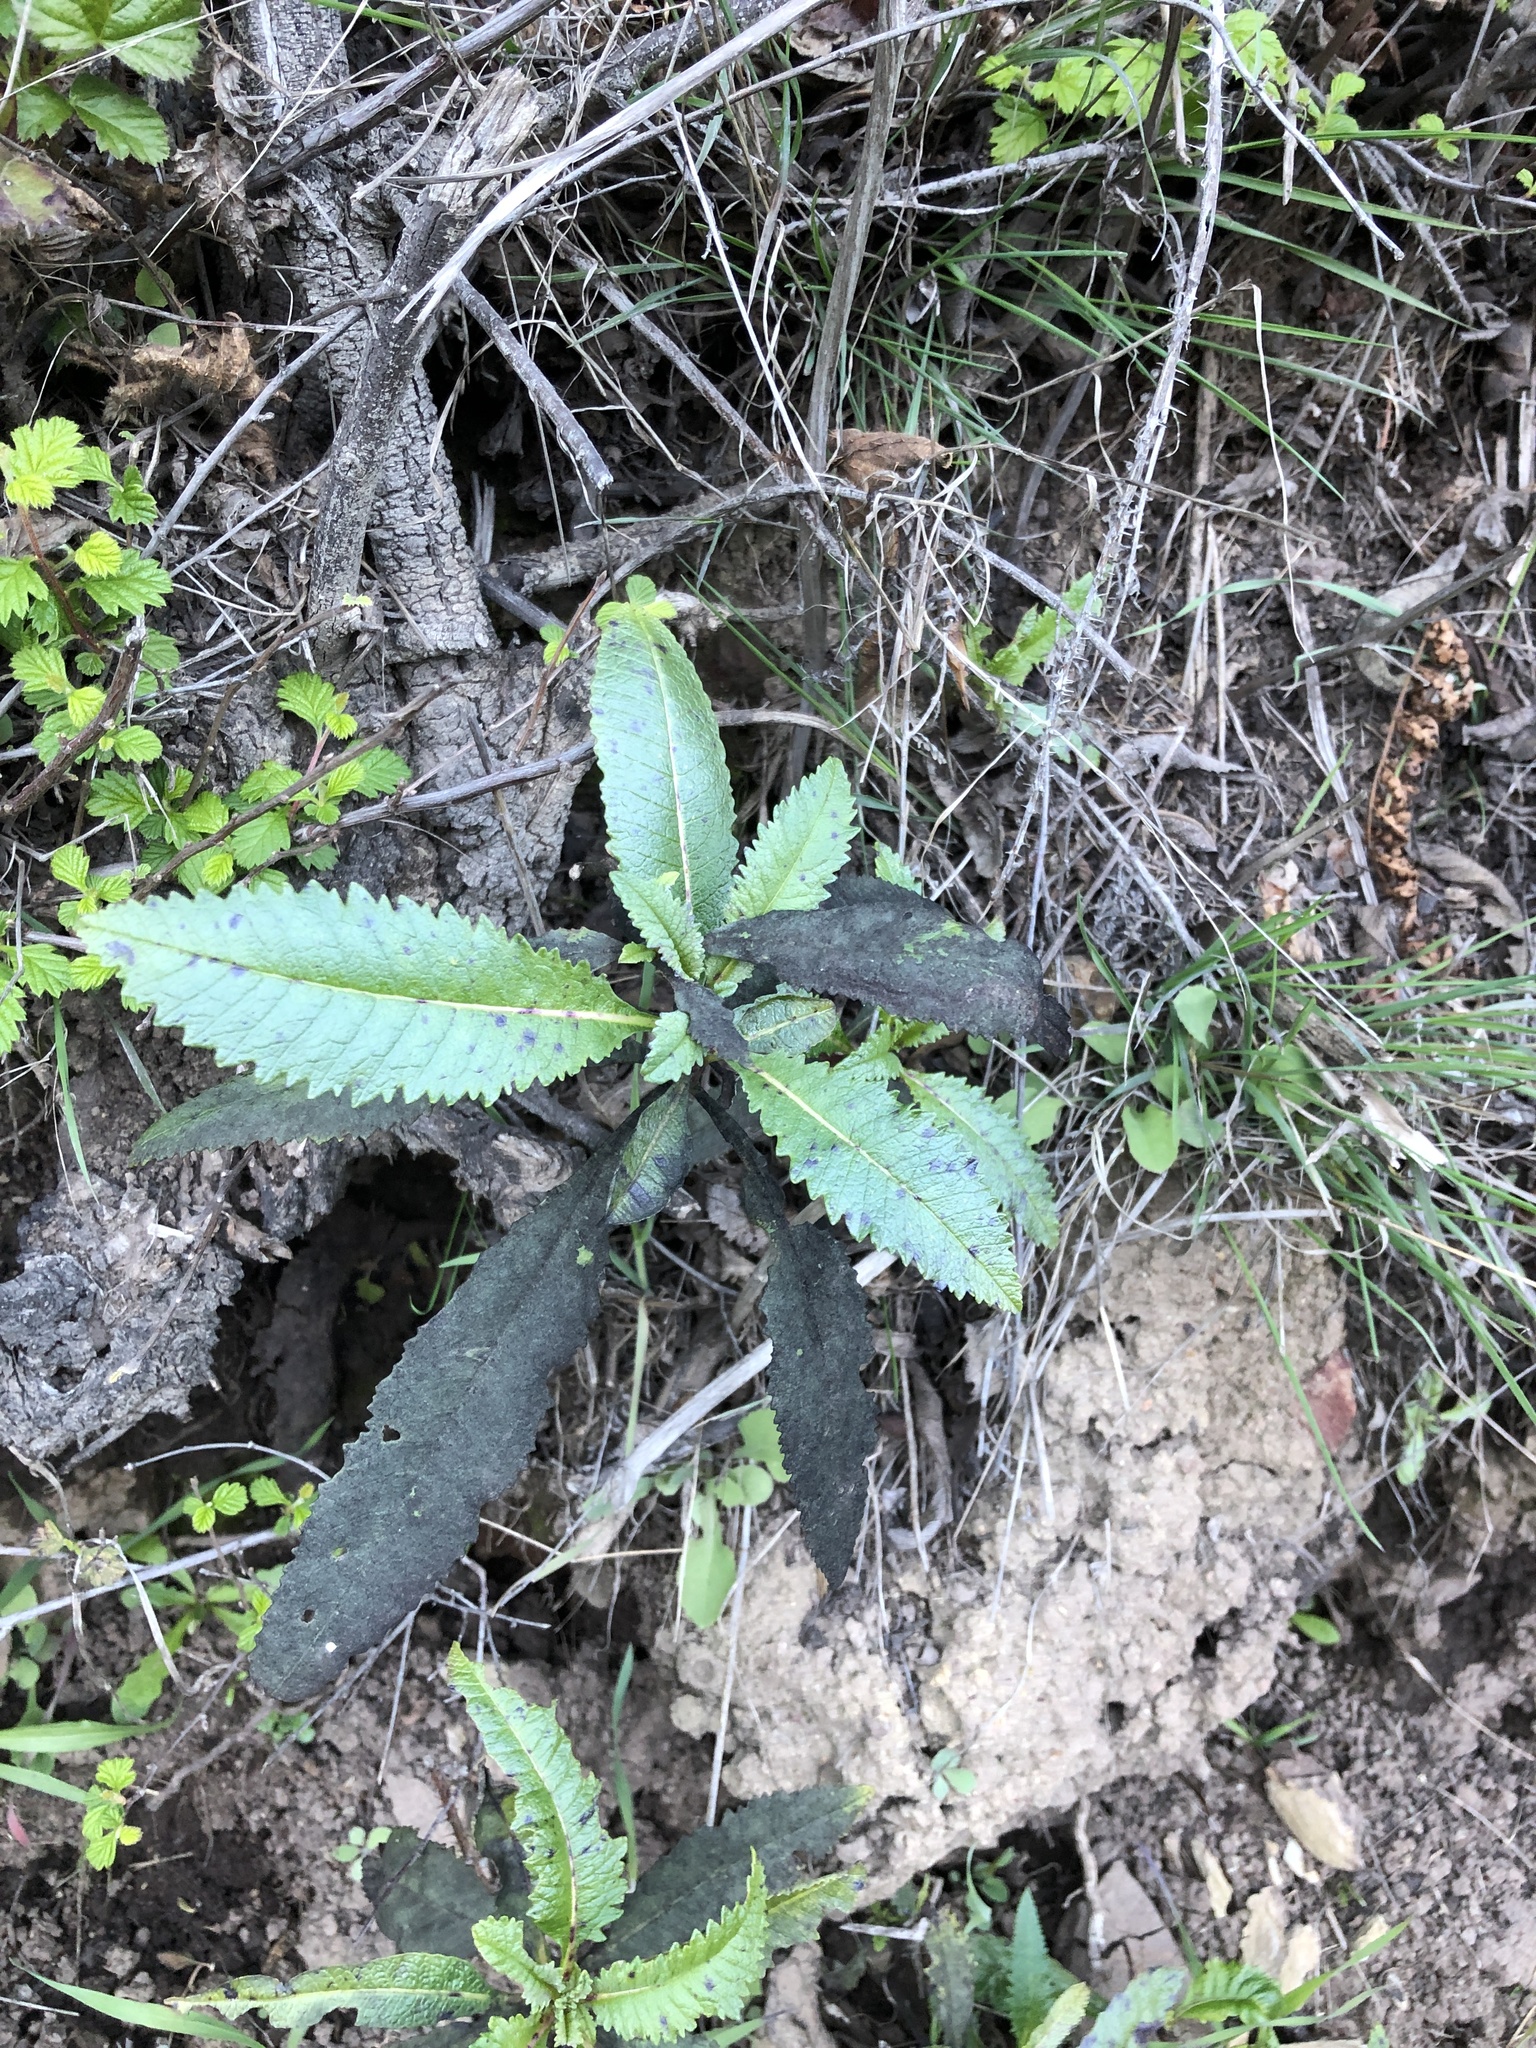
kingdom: Plantae
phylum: Tracheophyta
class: Magnoliopsida
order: Boraginales
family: Namaceae
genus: Eriodictyon
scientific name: Eriodictyon californicum
